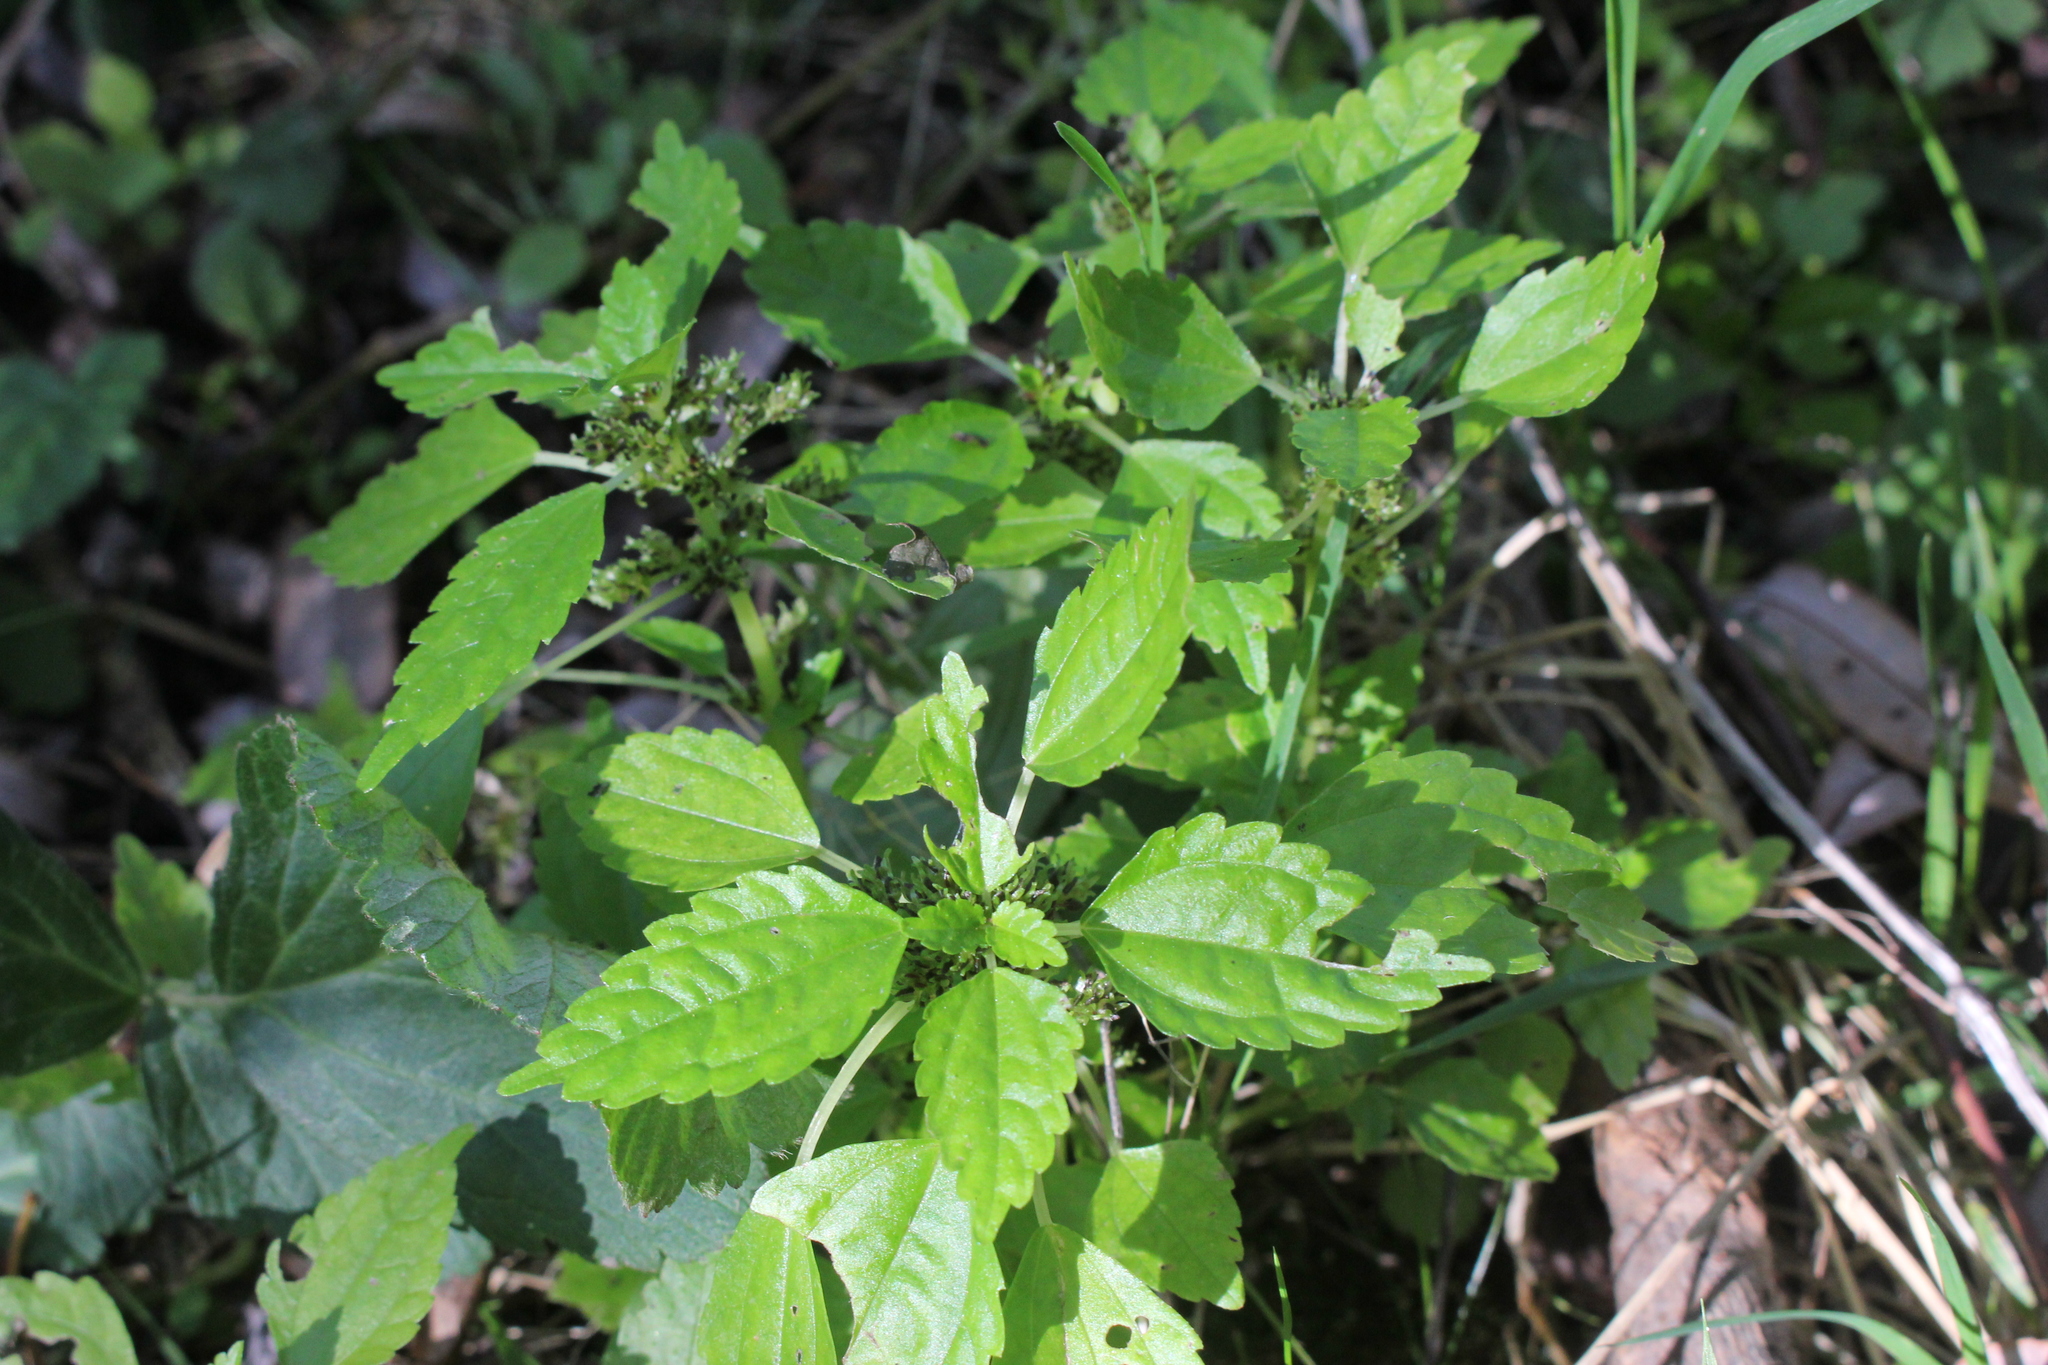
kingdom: Plantae
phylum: Tracheophyta
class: Magnoliopsida
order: Rosales
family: Urticaceae
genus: Pilea
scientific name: Pilea fontana
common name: Clearweed
